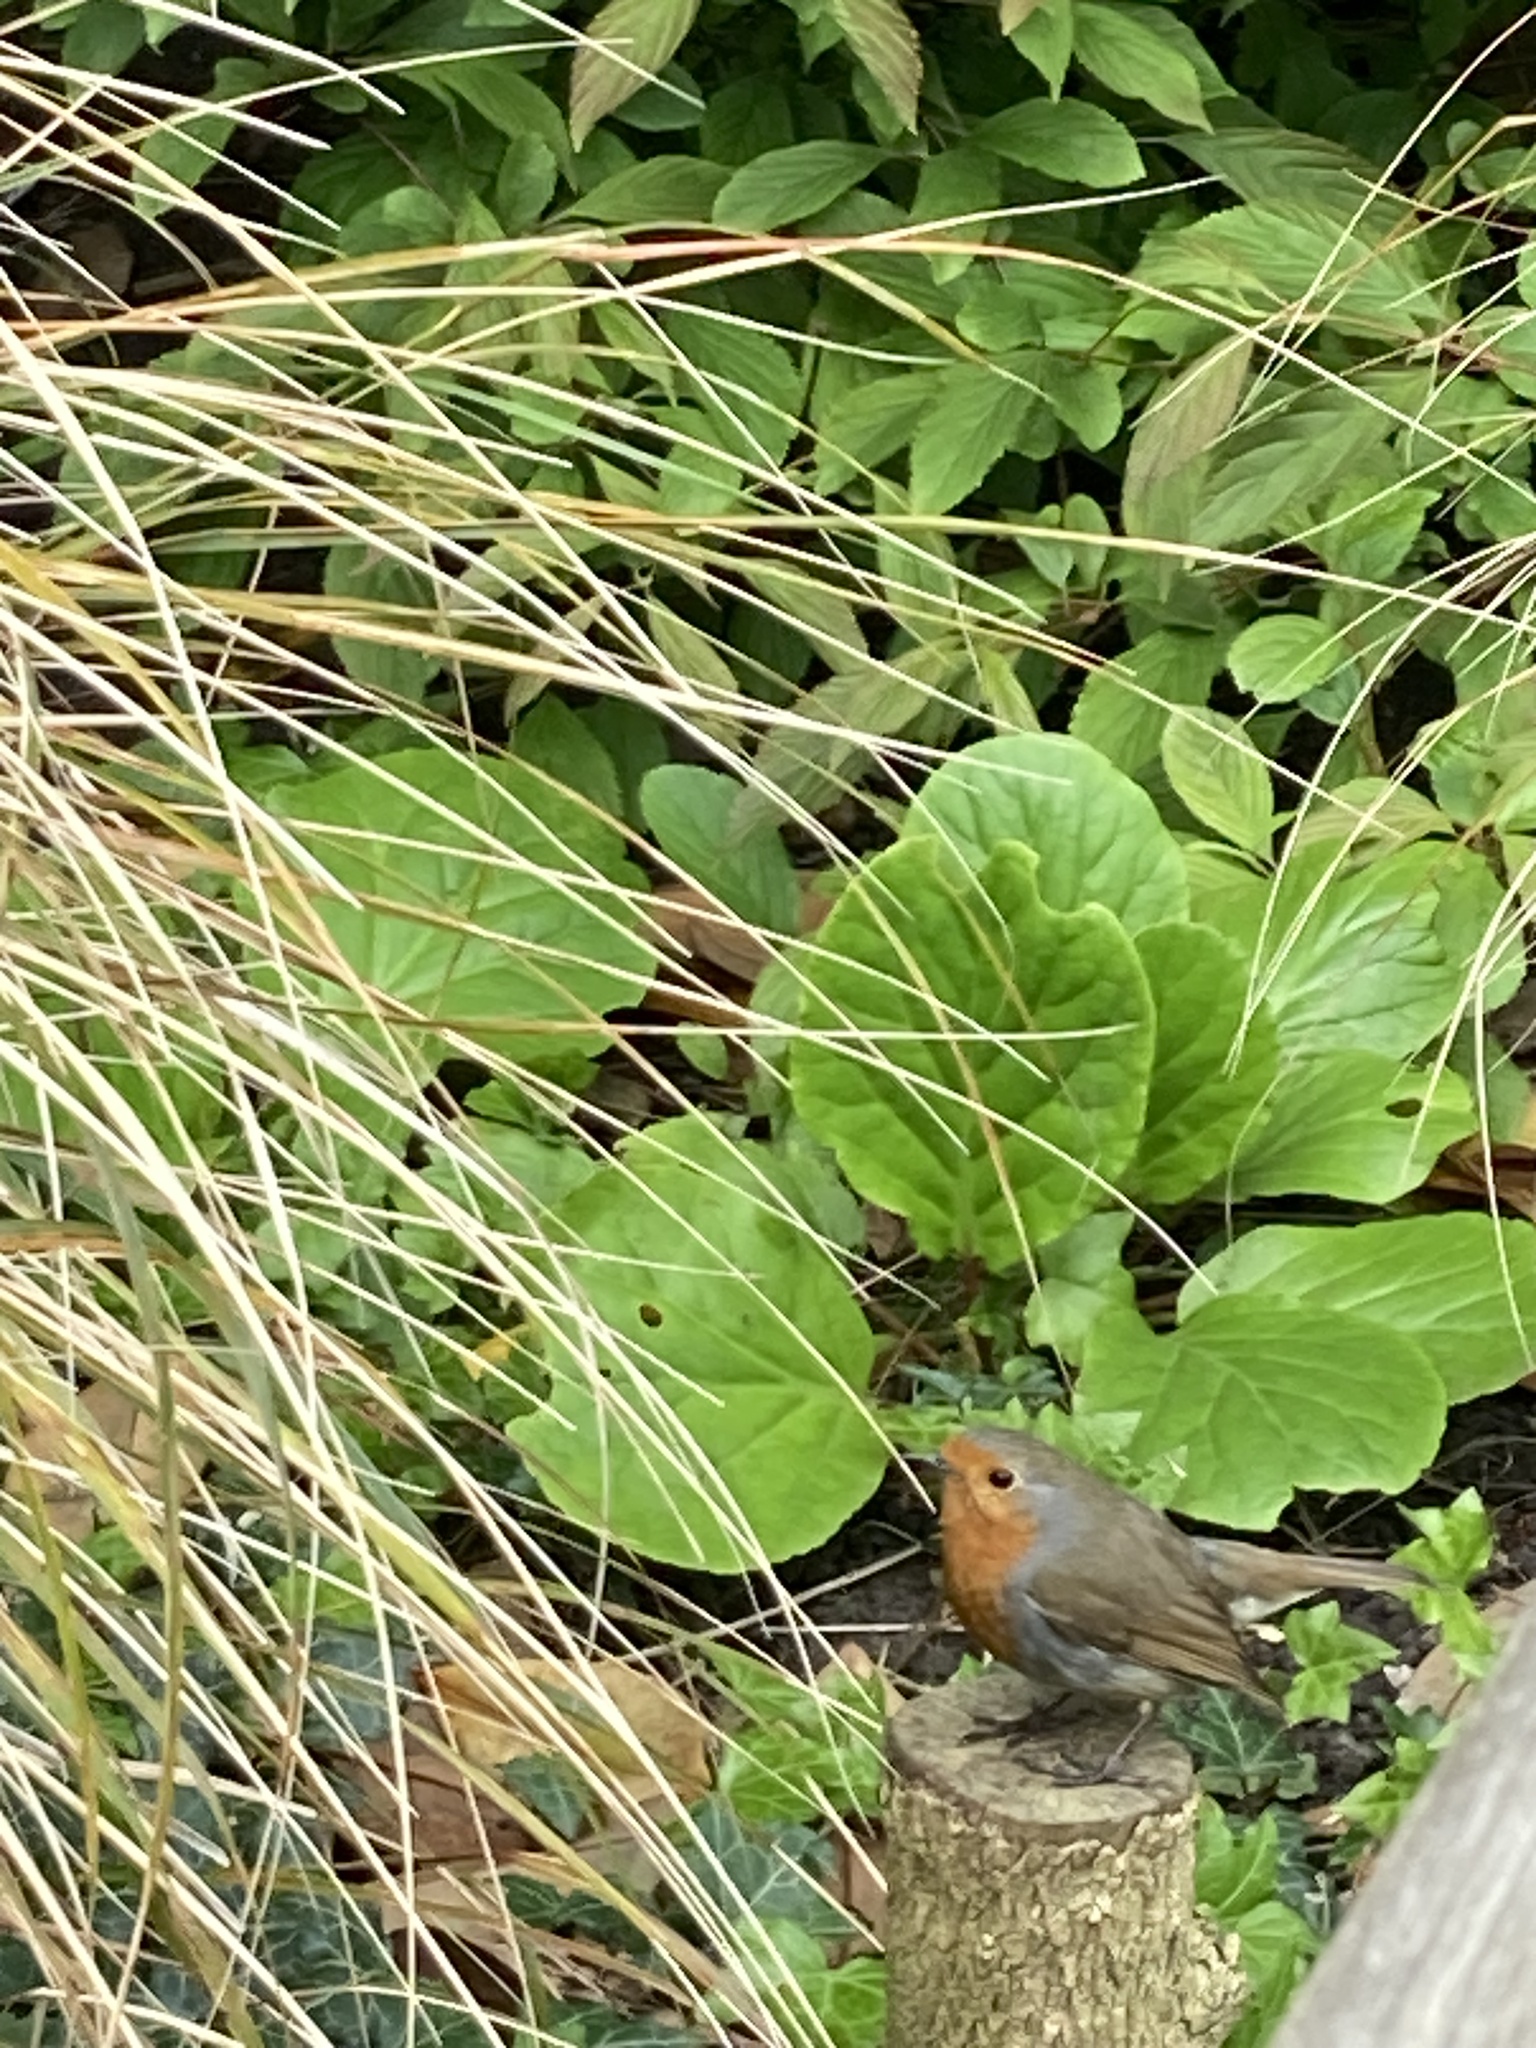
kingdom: Animalia
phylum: Chordata
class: Aves
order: Passeriformes
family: Muscicapidae
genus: Erithacus
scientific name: Erithacus rubecula
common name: European robin
